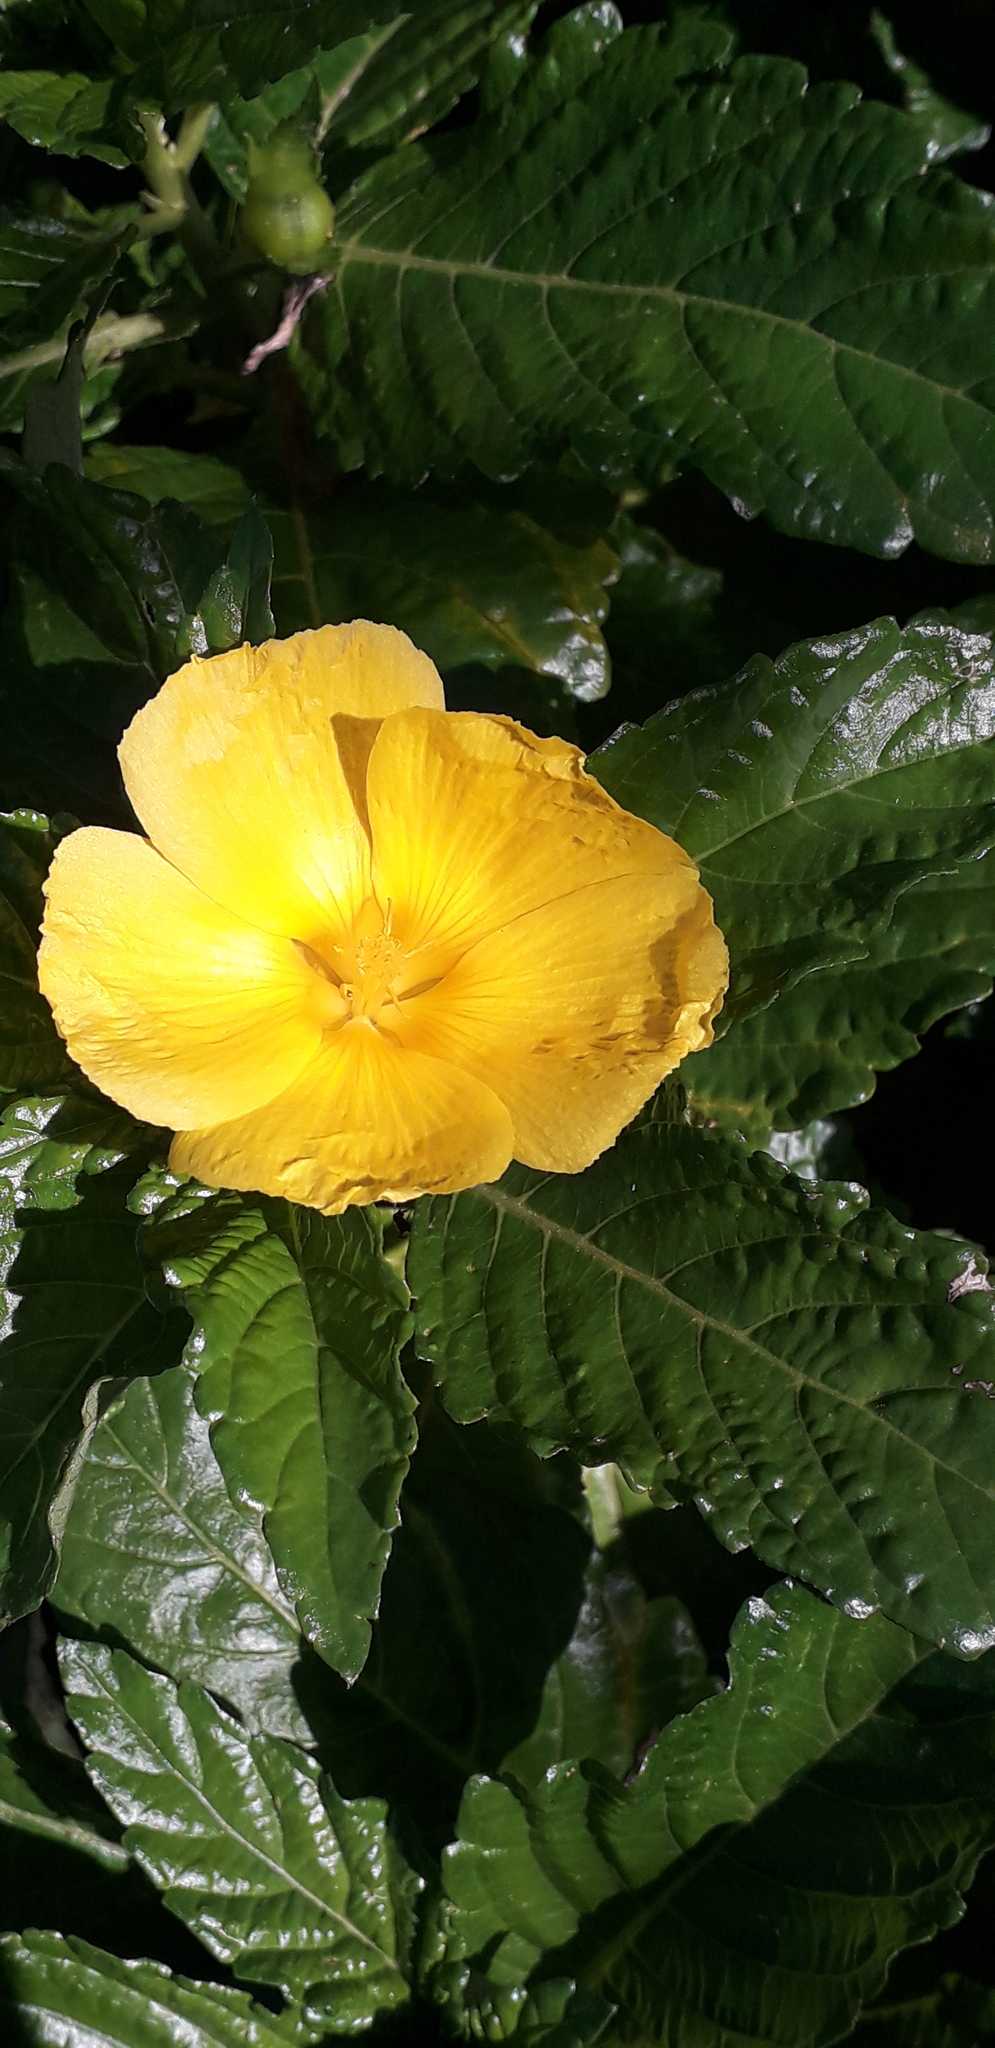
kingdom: Plantae
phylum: Tracheophyta
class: Magnoliopsida
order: Malpighiales
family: Turneraceae
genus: Turnera
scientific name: Turnera ulmifolia
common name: Ramgoat dashalong
